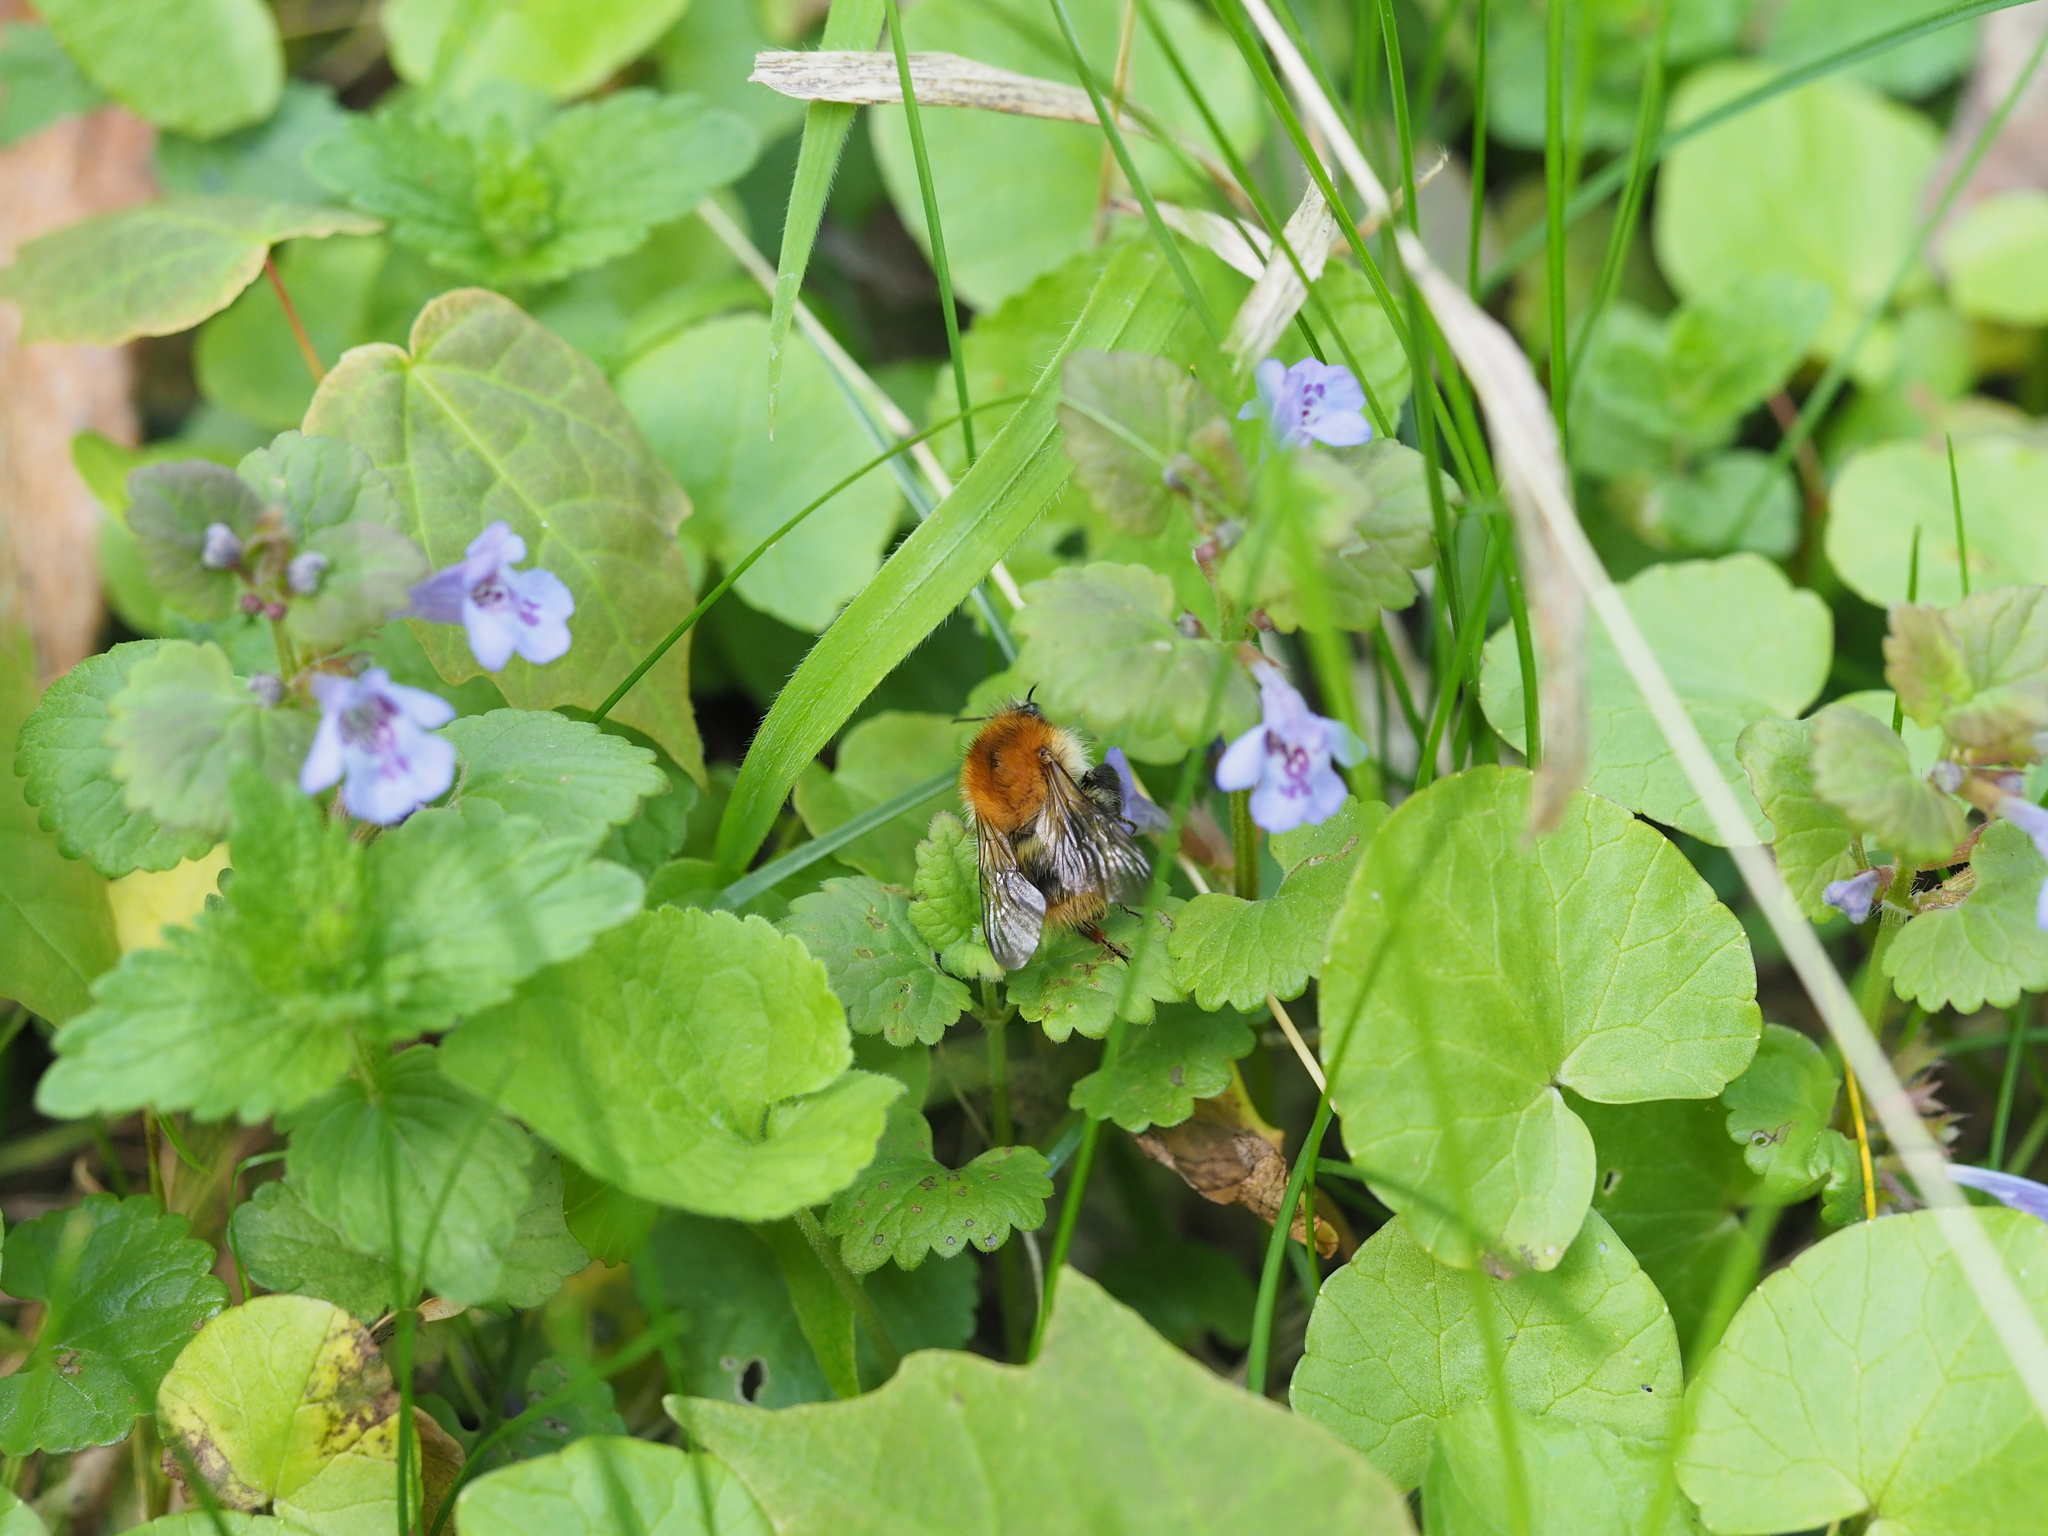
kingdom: Plantae
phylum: Tracheophyta
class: Magnoliopsida
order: Lamiales
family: Lamiaceae
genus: Glechoma
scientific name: Glechoma hederacea
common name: Ground ivy
